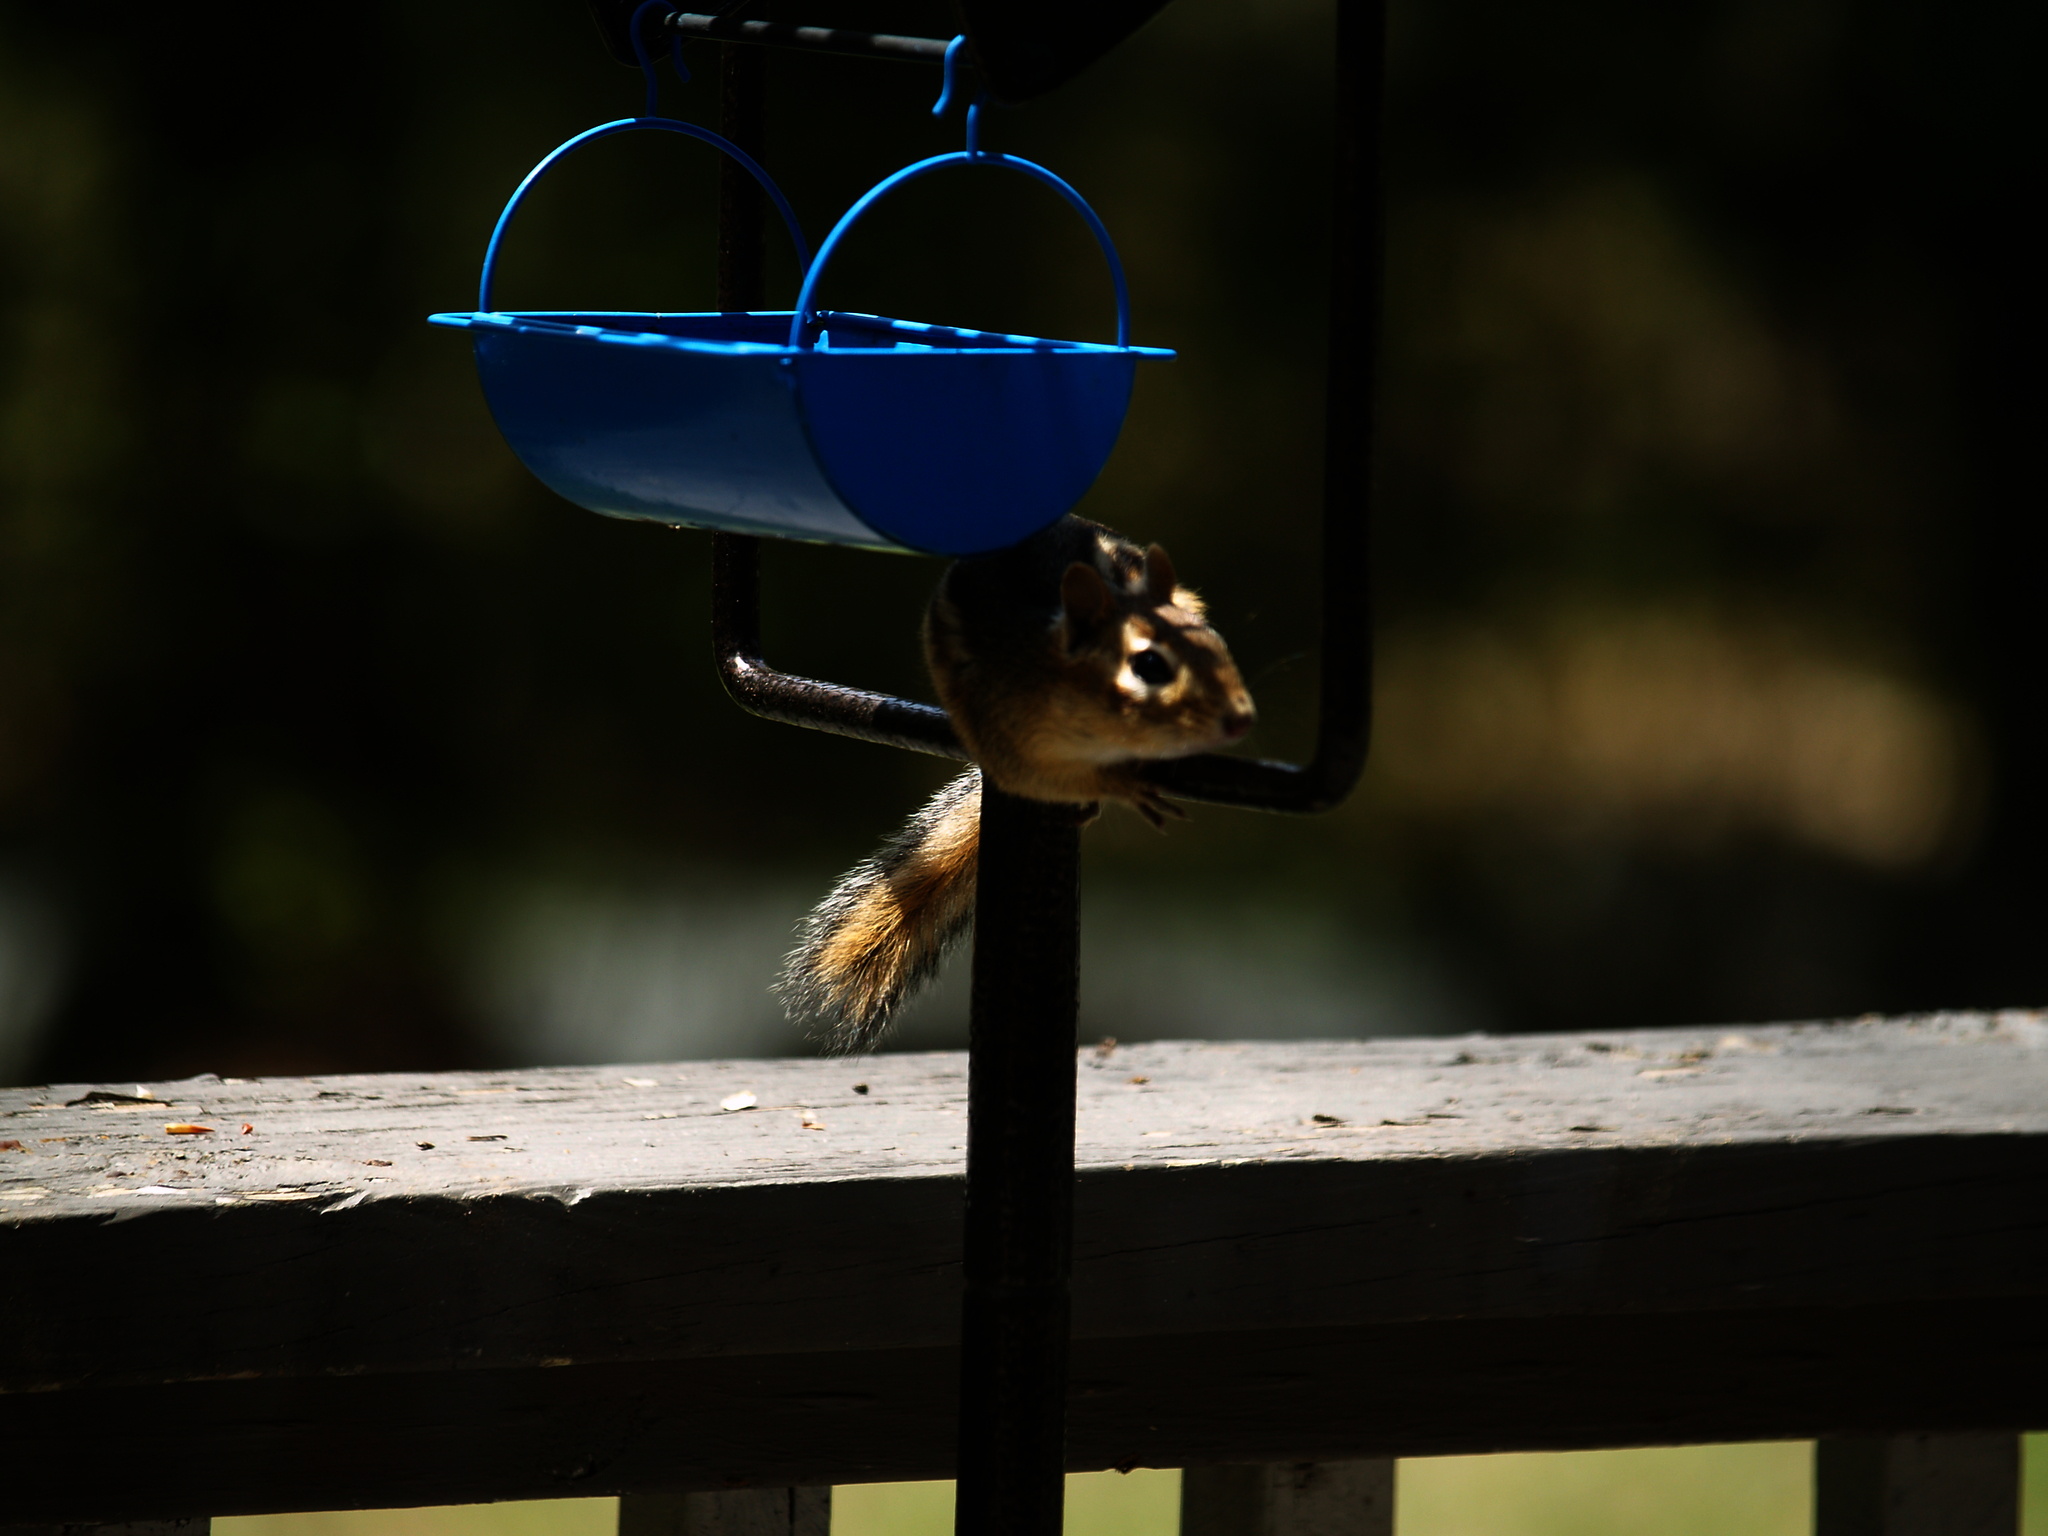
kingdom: Animalia
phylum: Chordata
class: Mammalia
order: Rodentia
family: Sciuridae
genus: Tamias
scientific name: Tamias striatus
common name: Eastern chipmunk
